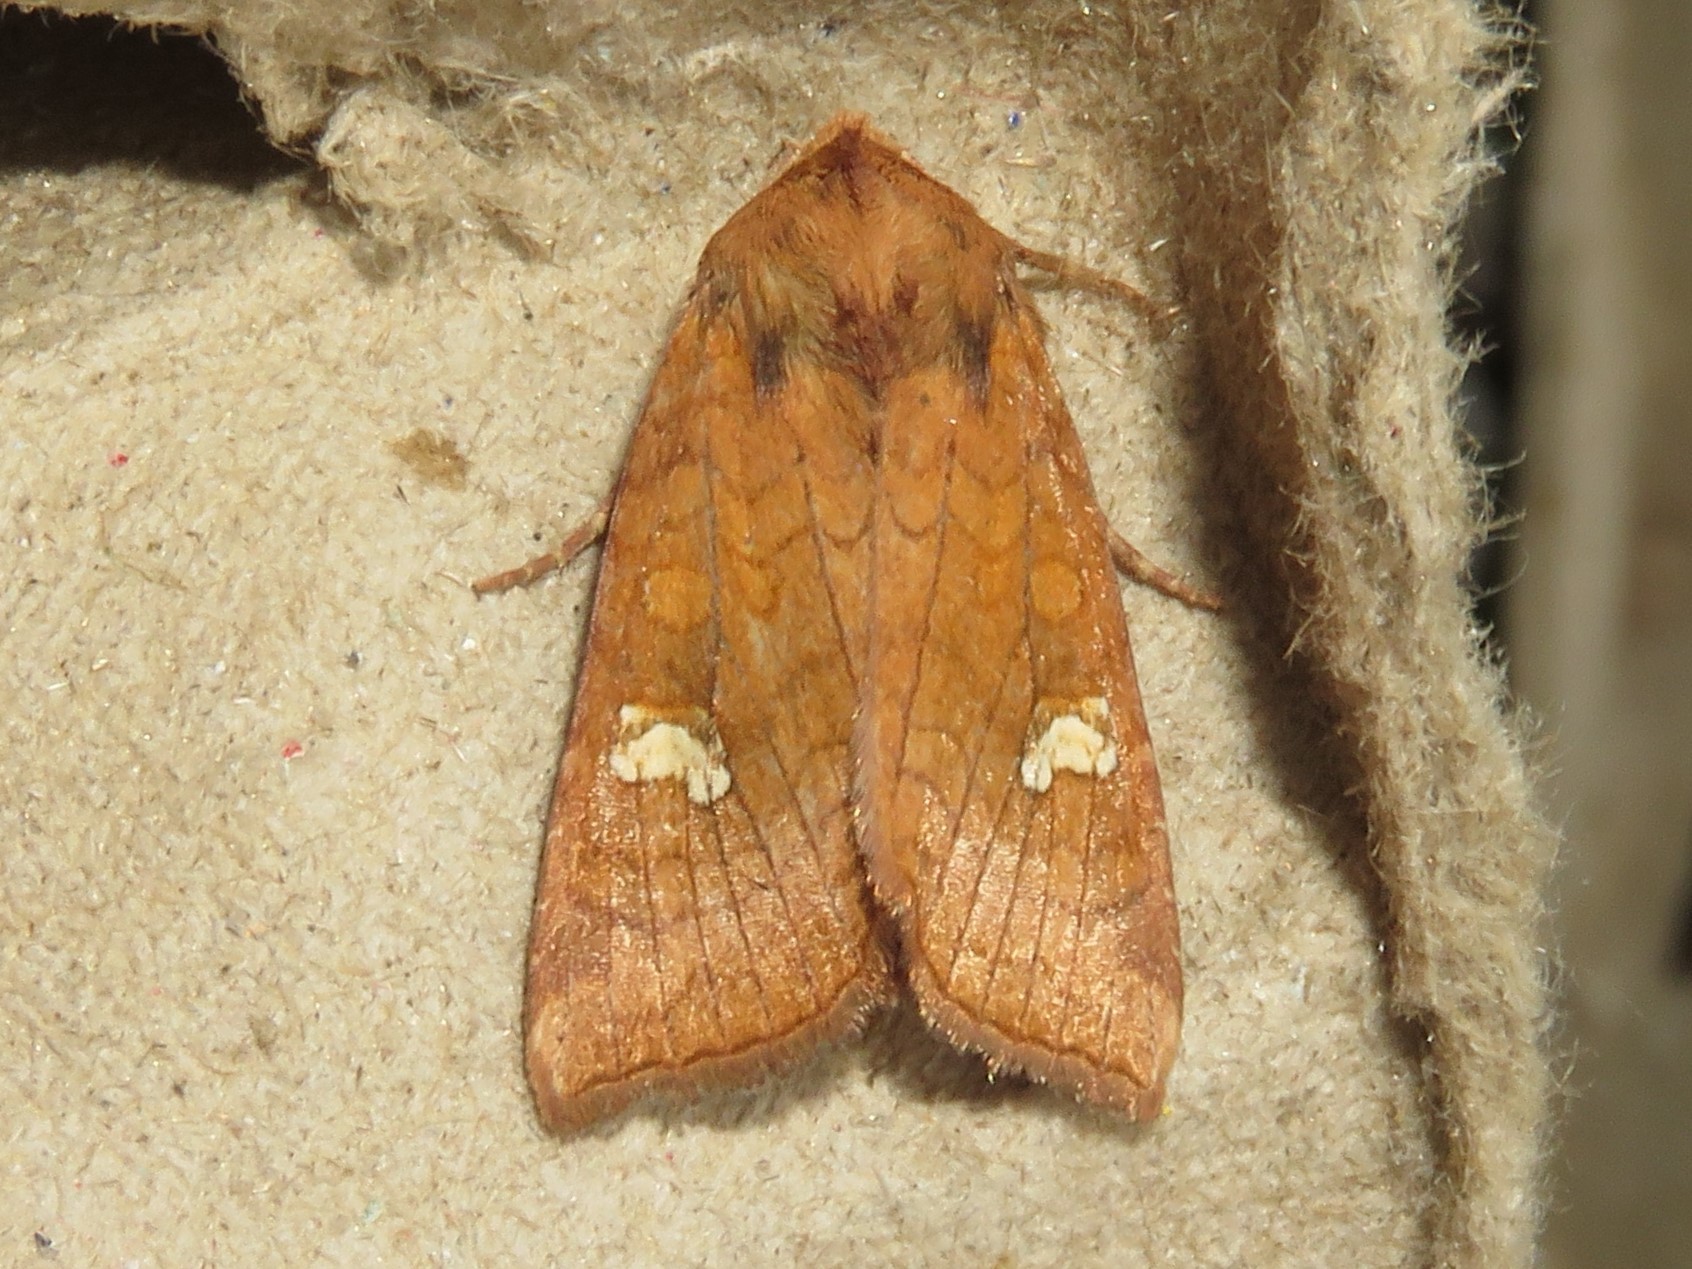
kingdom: Animalia
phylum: Arthropoda
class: Insecta
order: Lepidoptera
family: Noctuidae
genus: Amphipoea
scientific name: Amphipoea americana
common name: American ear moth
